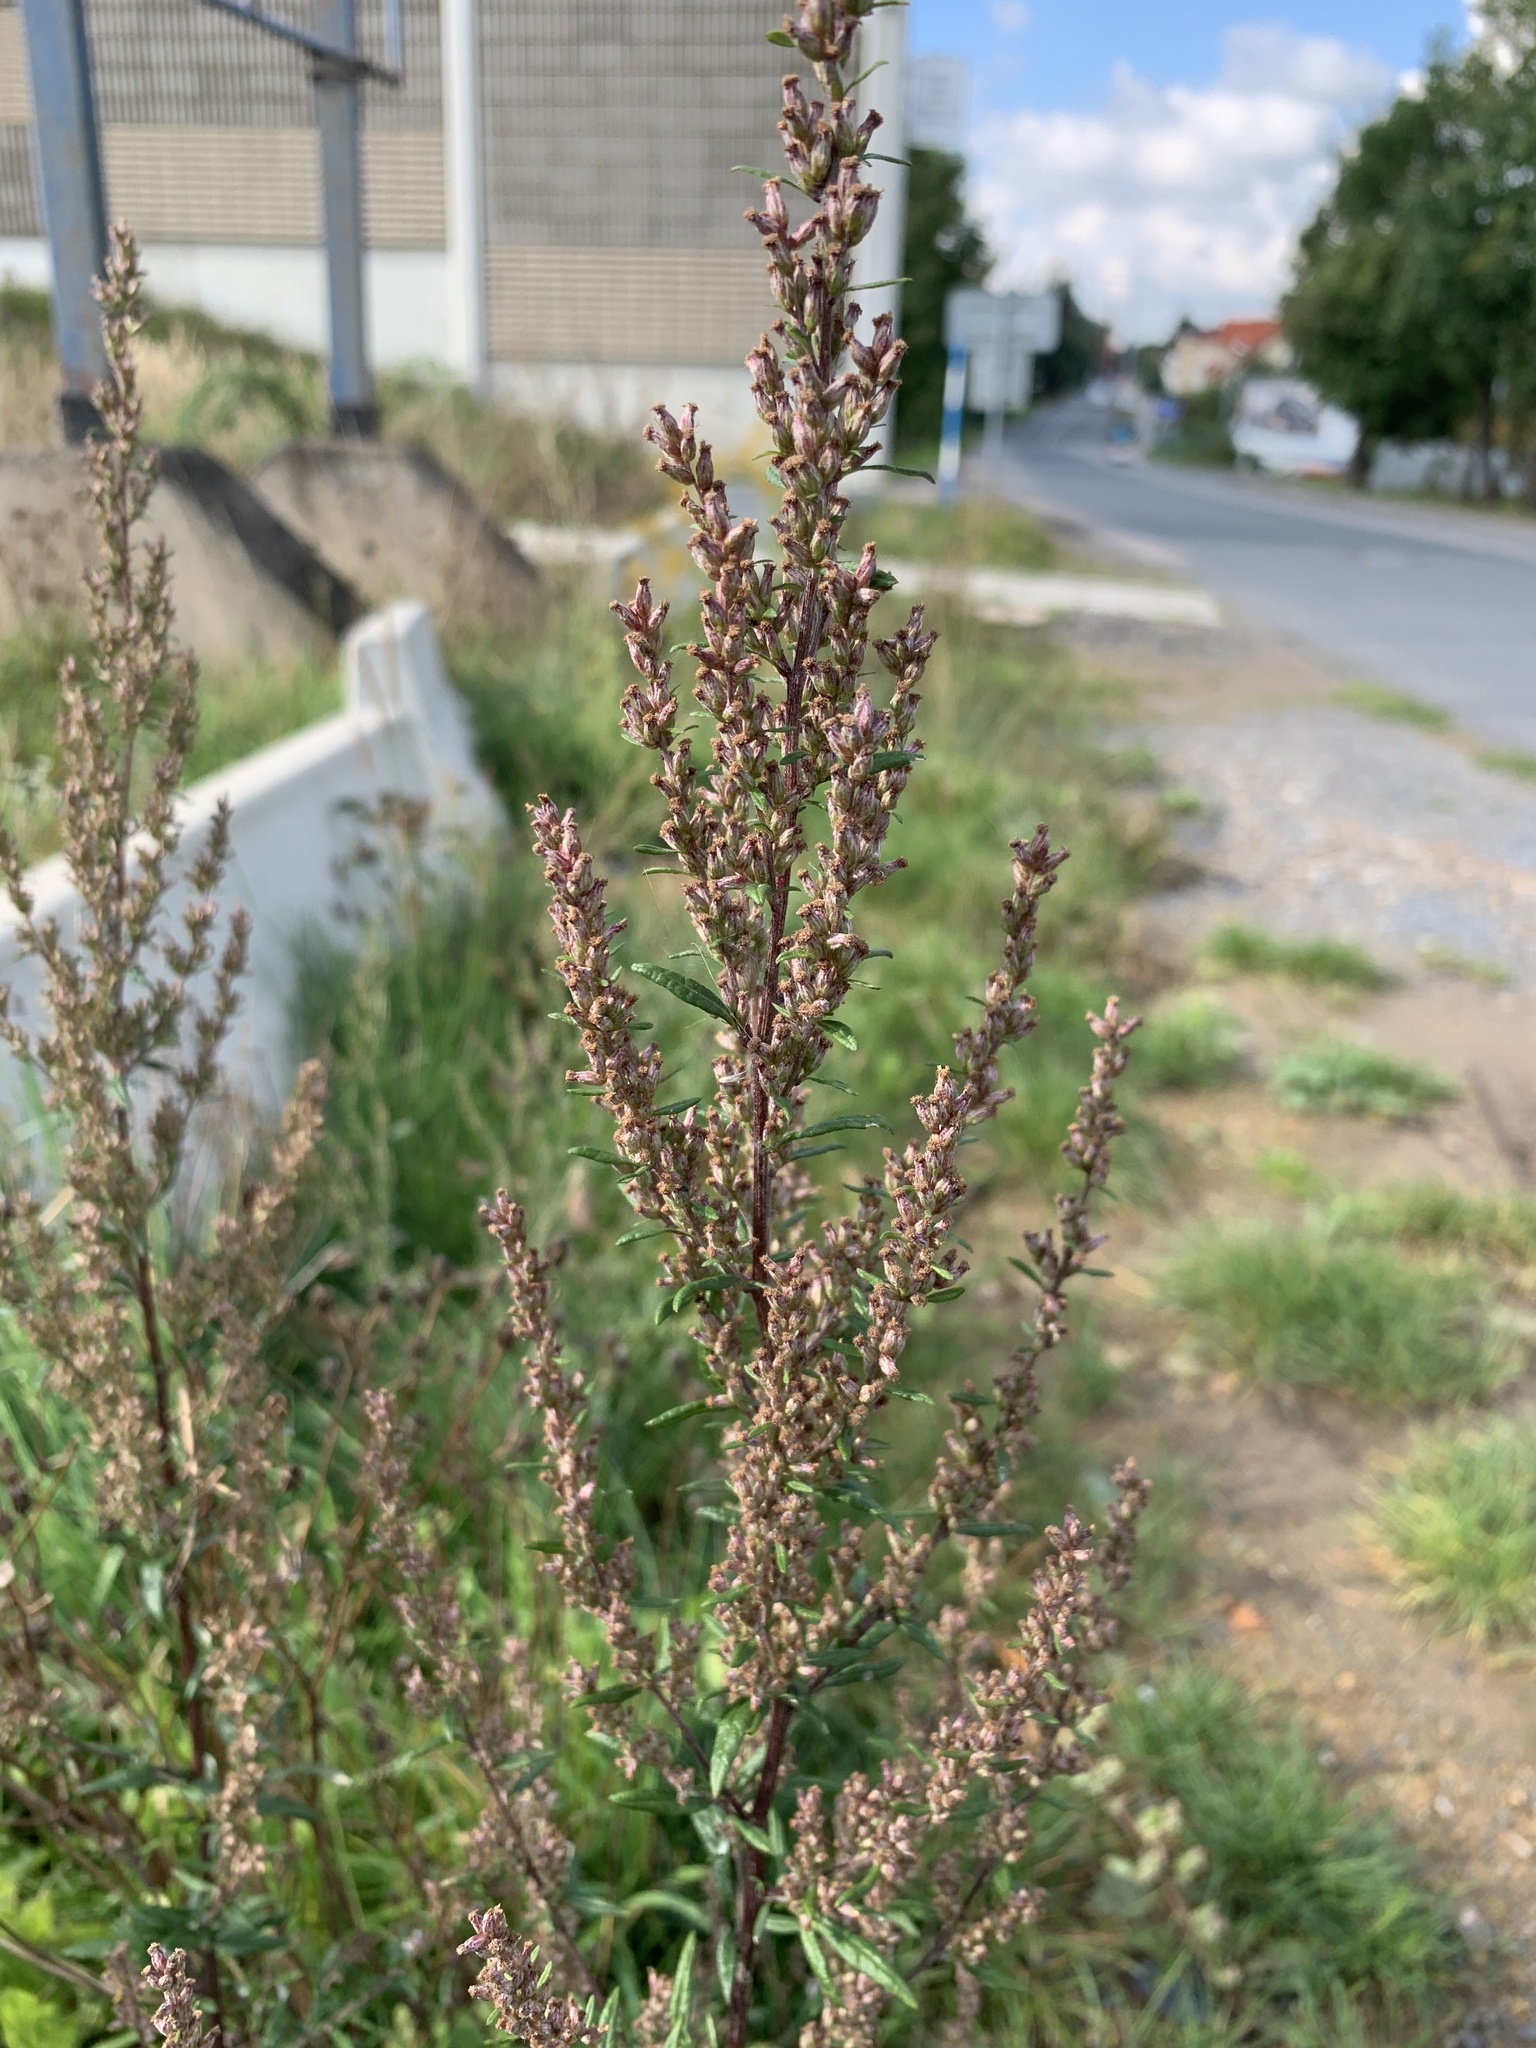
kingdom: Plantae
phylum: Tracheophyta
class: Magnoliopsida
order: Asterales
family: Asteraceae
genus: Artemisia
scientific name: Artemisia vulgaris
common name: Mugwort
